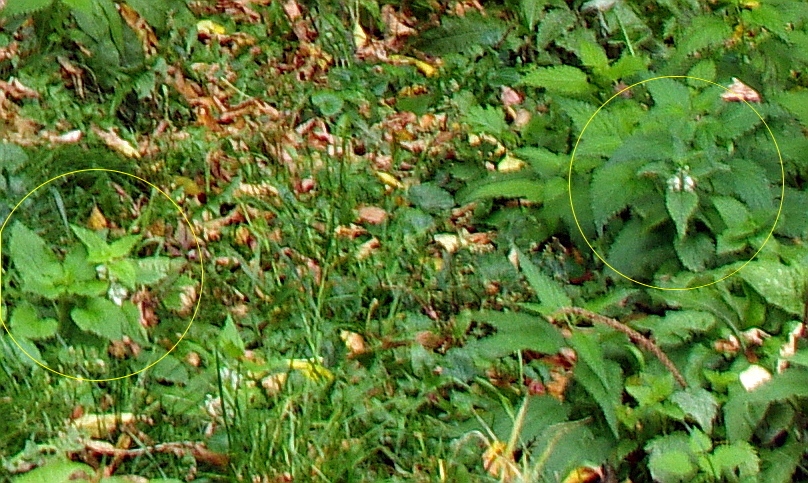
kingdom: Plantae
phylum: Tracheophyta
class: Magnoliopsida
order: Lamiales
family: Lamiaceae
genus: Lamium
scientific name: Lamium album
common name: White dead-nettle
